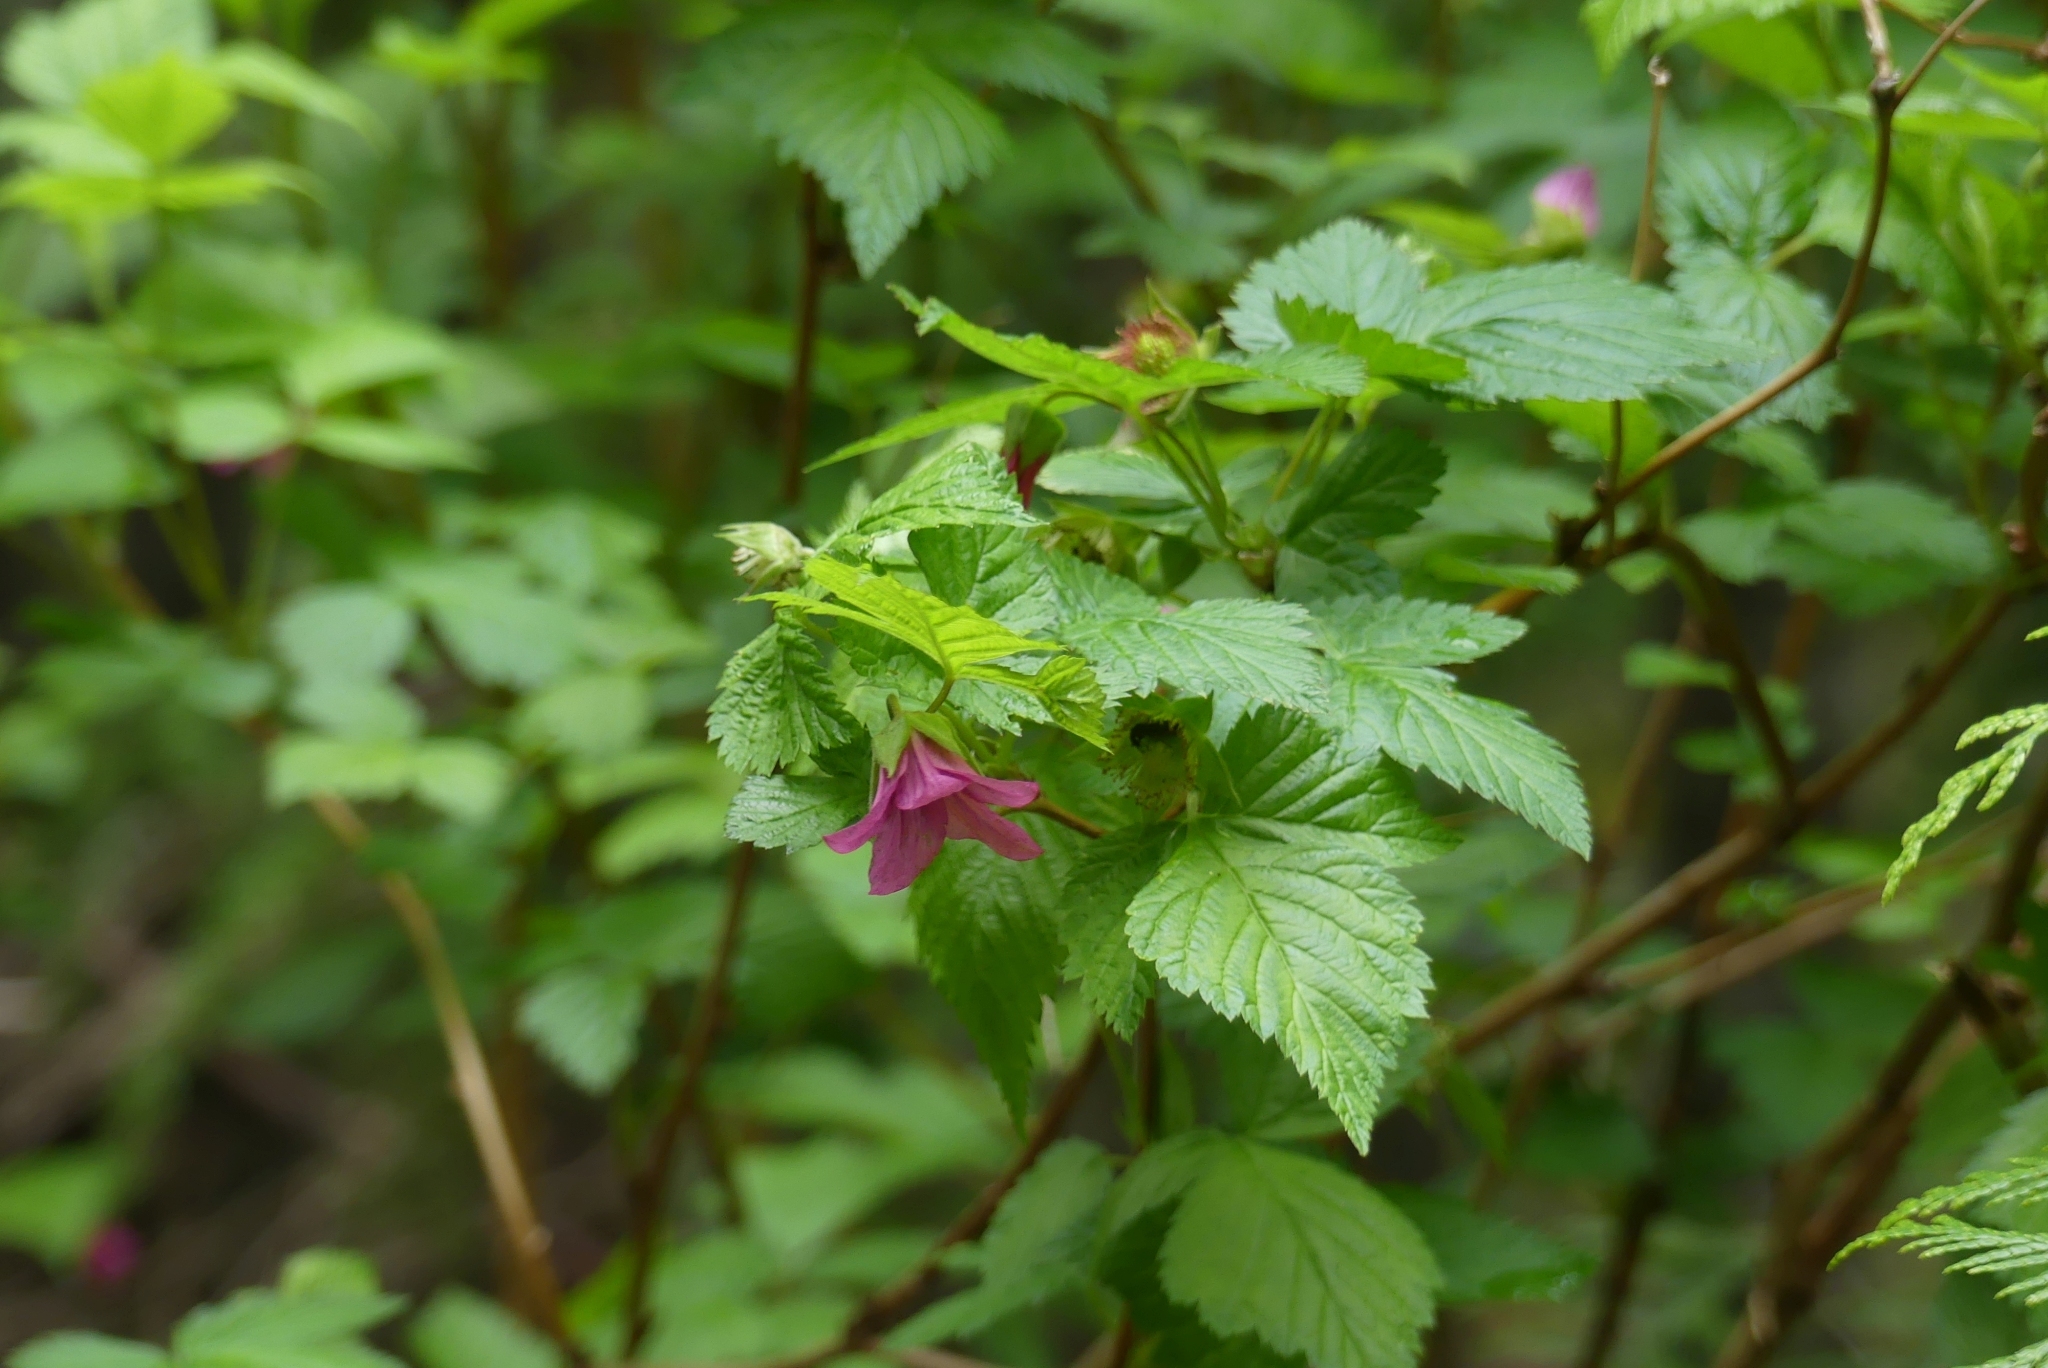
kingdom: Plantae
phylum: Tracheophyta
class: Magnoliopsida
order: Rosales
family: Rosaceae
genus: Rubus
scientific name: Rubus spectabilis
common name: Salmonberry
